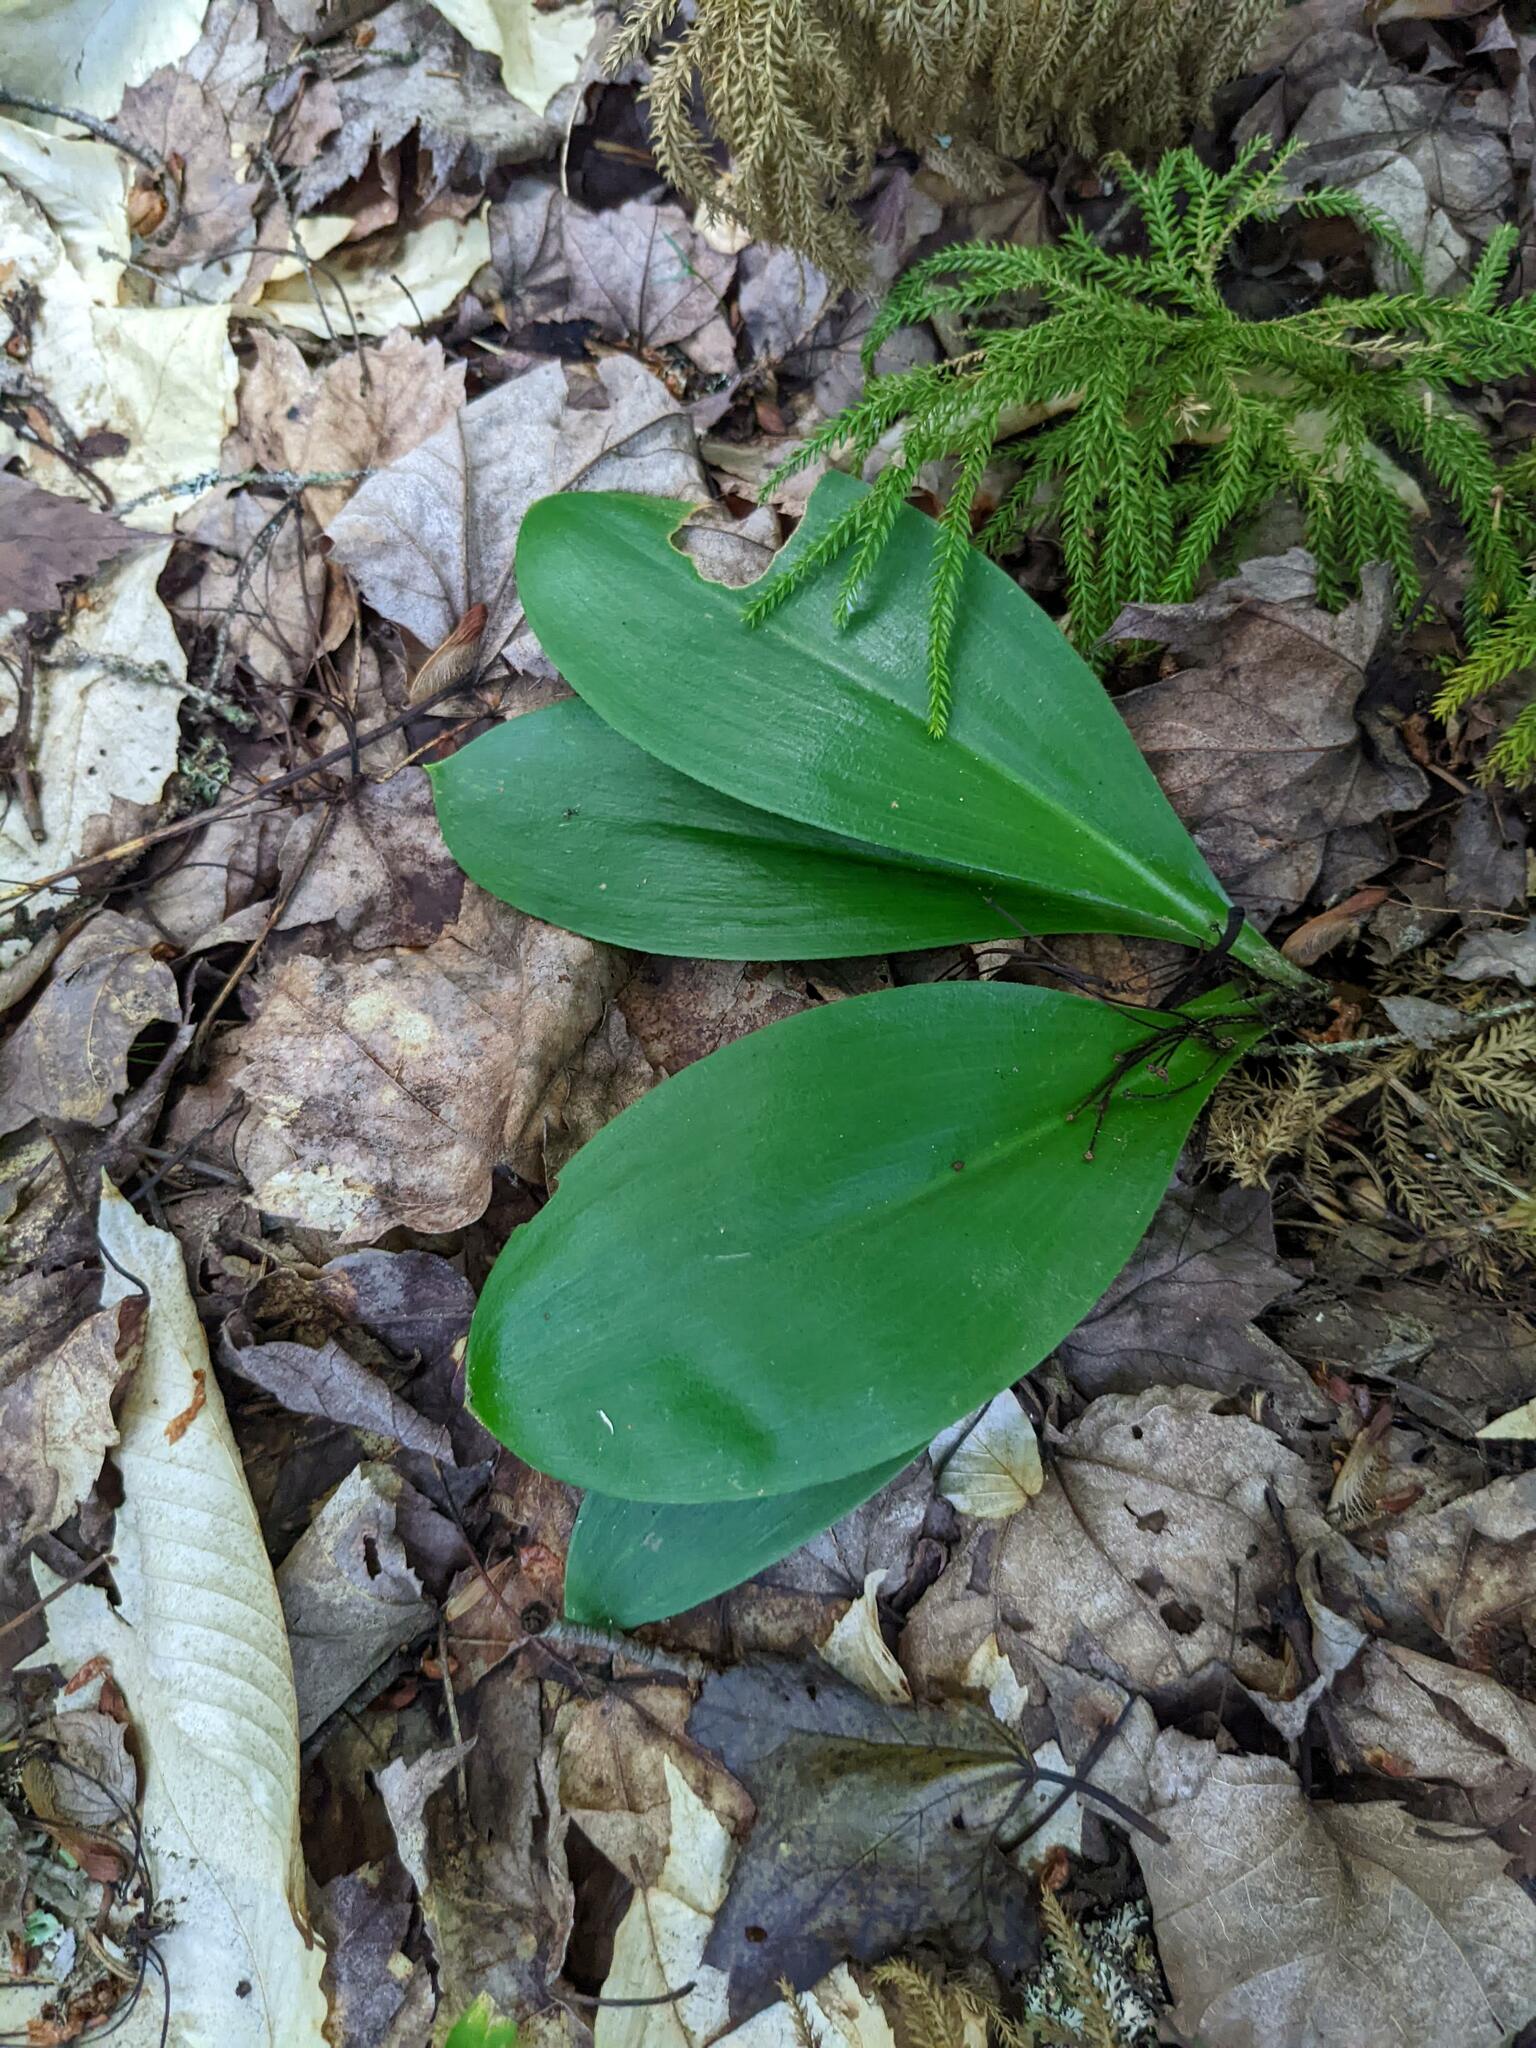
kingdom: Plantae
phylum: Tracheophyta
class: Liliopsida
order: Liliales
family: Liliaceae
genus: Clintonia
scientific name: Clintonia borealis
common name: Yellow clintonia
